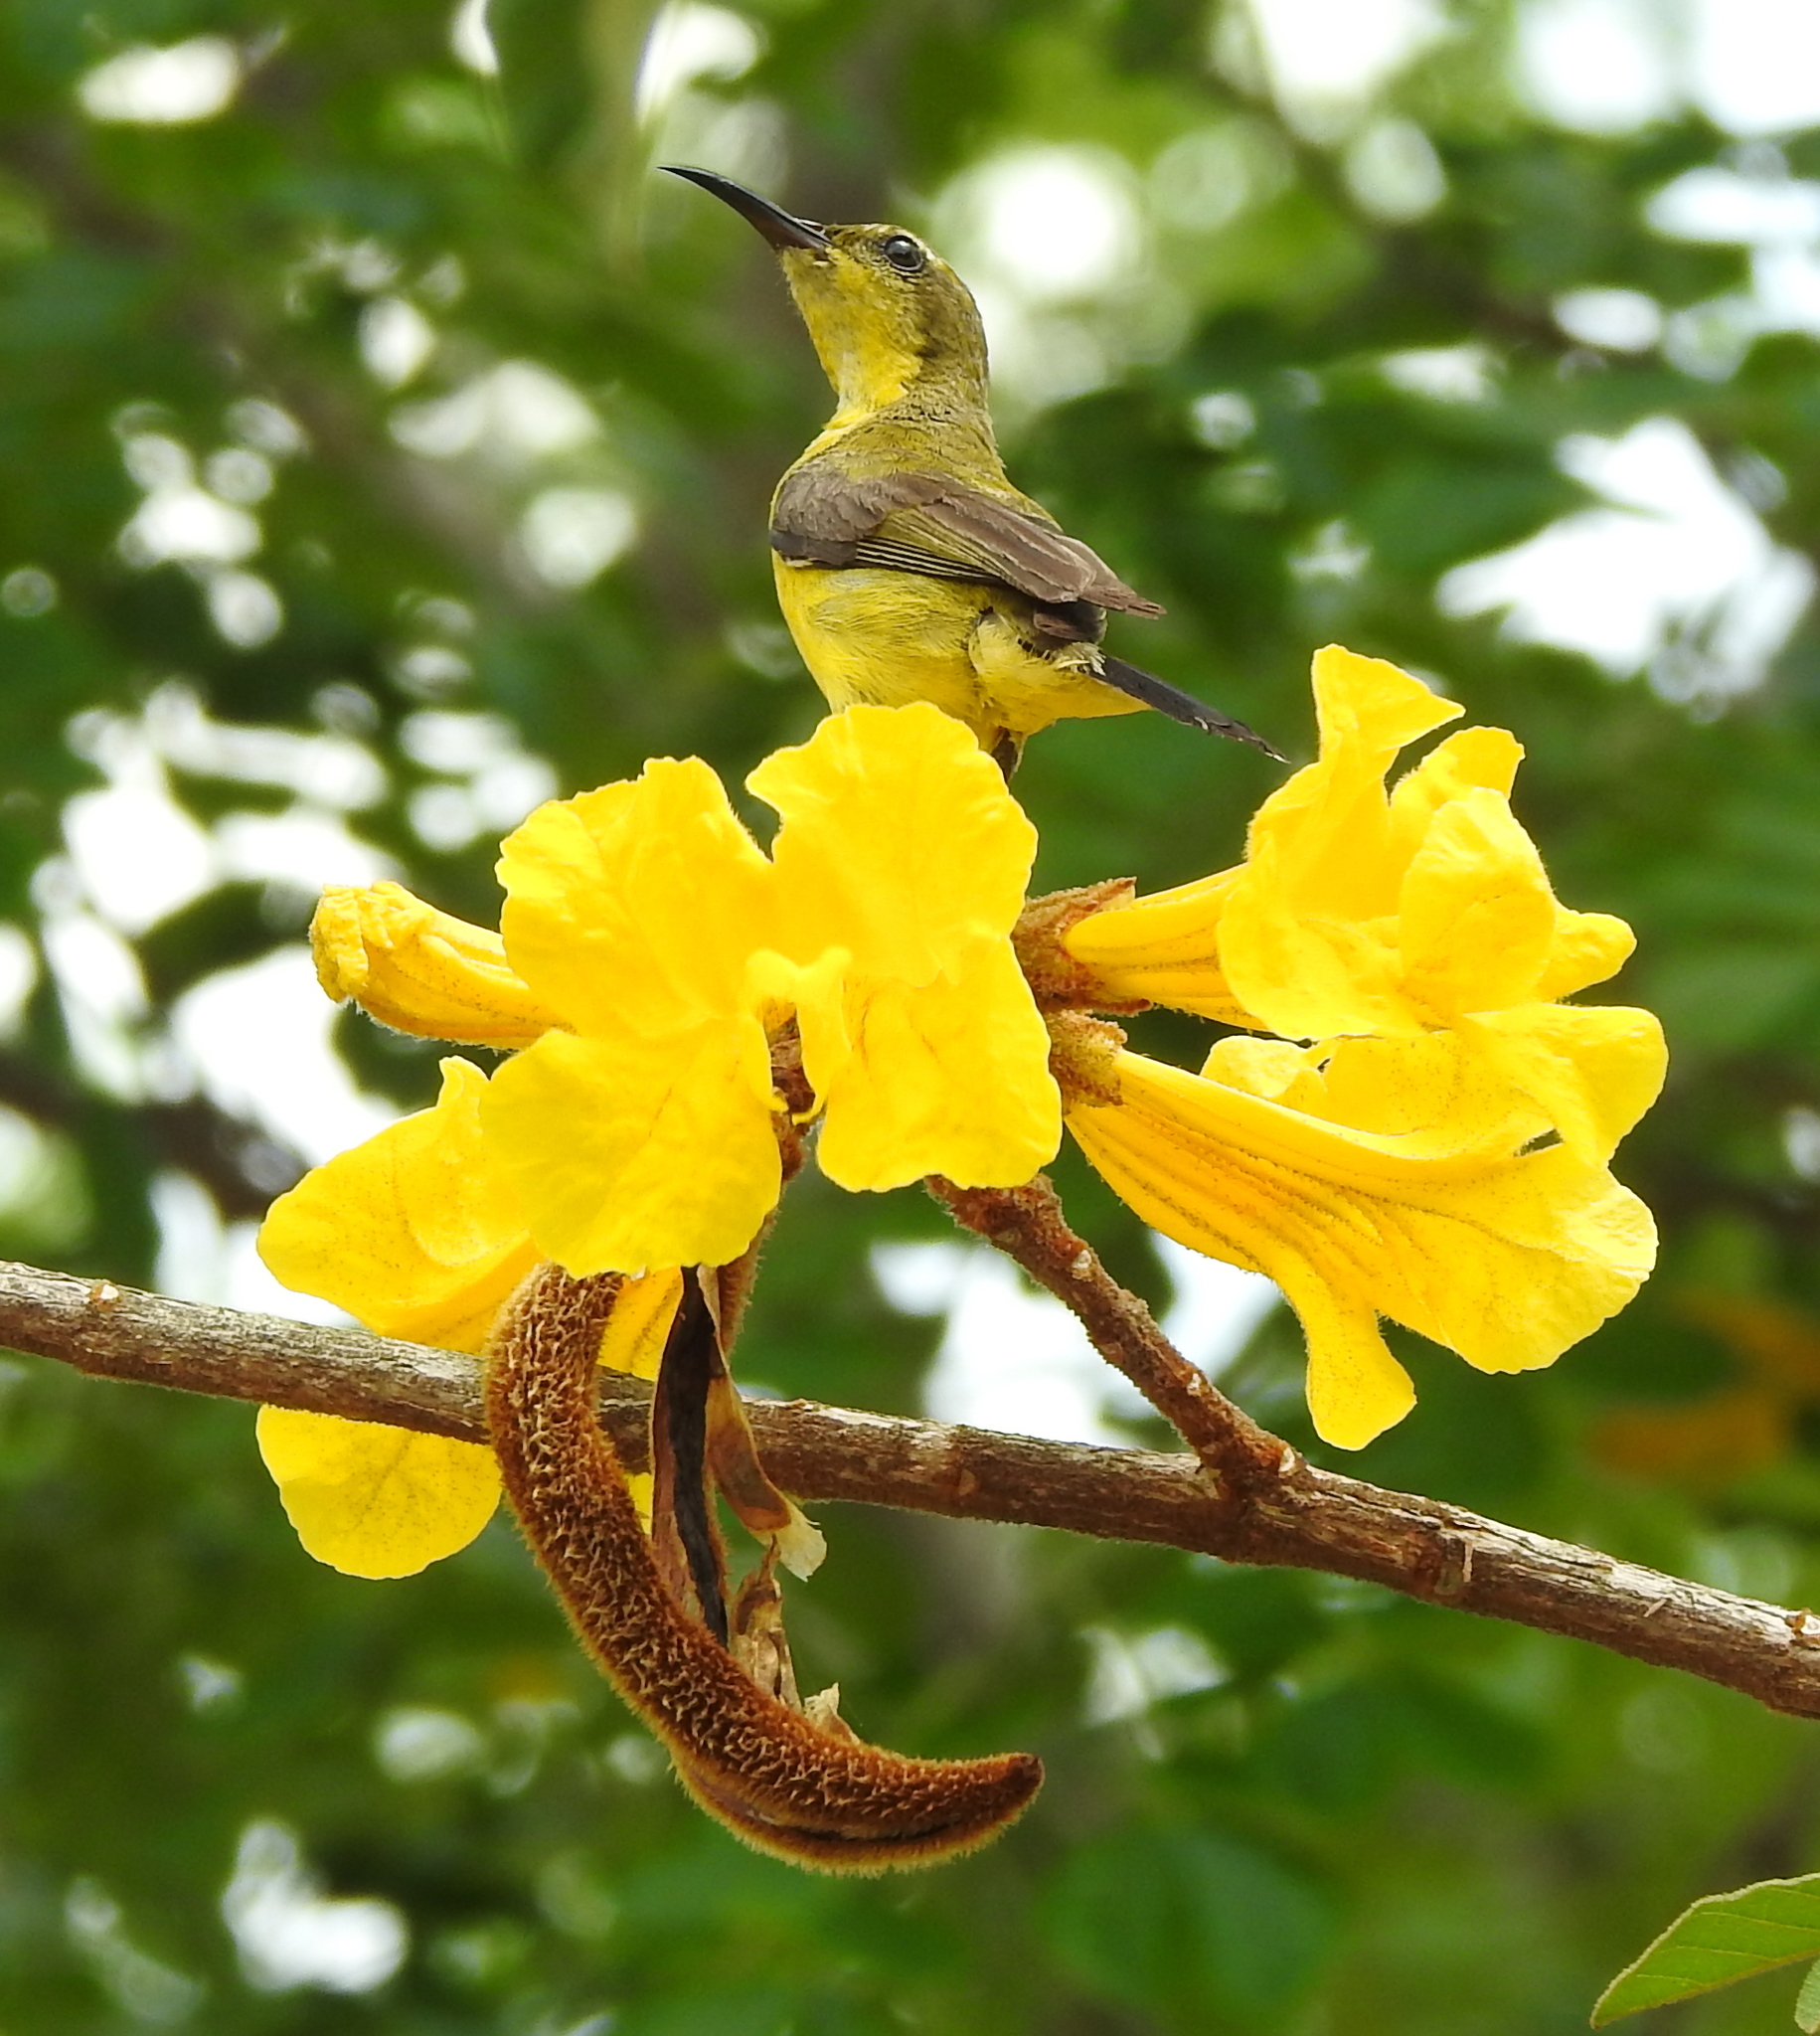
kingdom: Animalia
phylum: Chordata
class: Aves
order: Passeriformes
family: Nectariniidae
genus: Cinnyris
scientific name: Cinnyris
